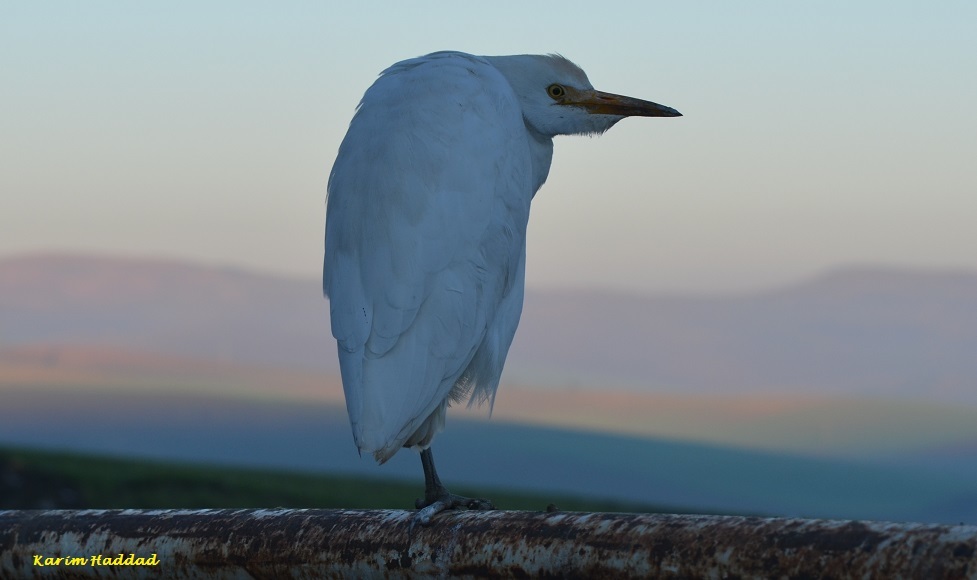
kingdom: Animalia
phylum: Chordata
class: Aves
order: Pelecaniformes
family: Ardeidae
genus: Bubulcus
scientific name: Bubulcus ibis
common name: Cattle egret
